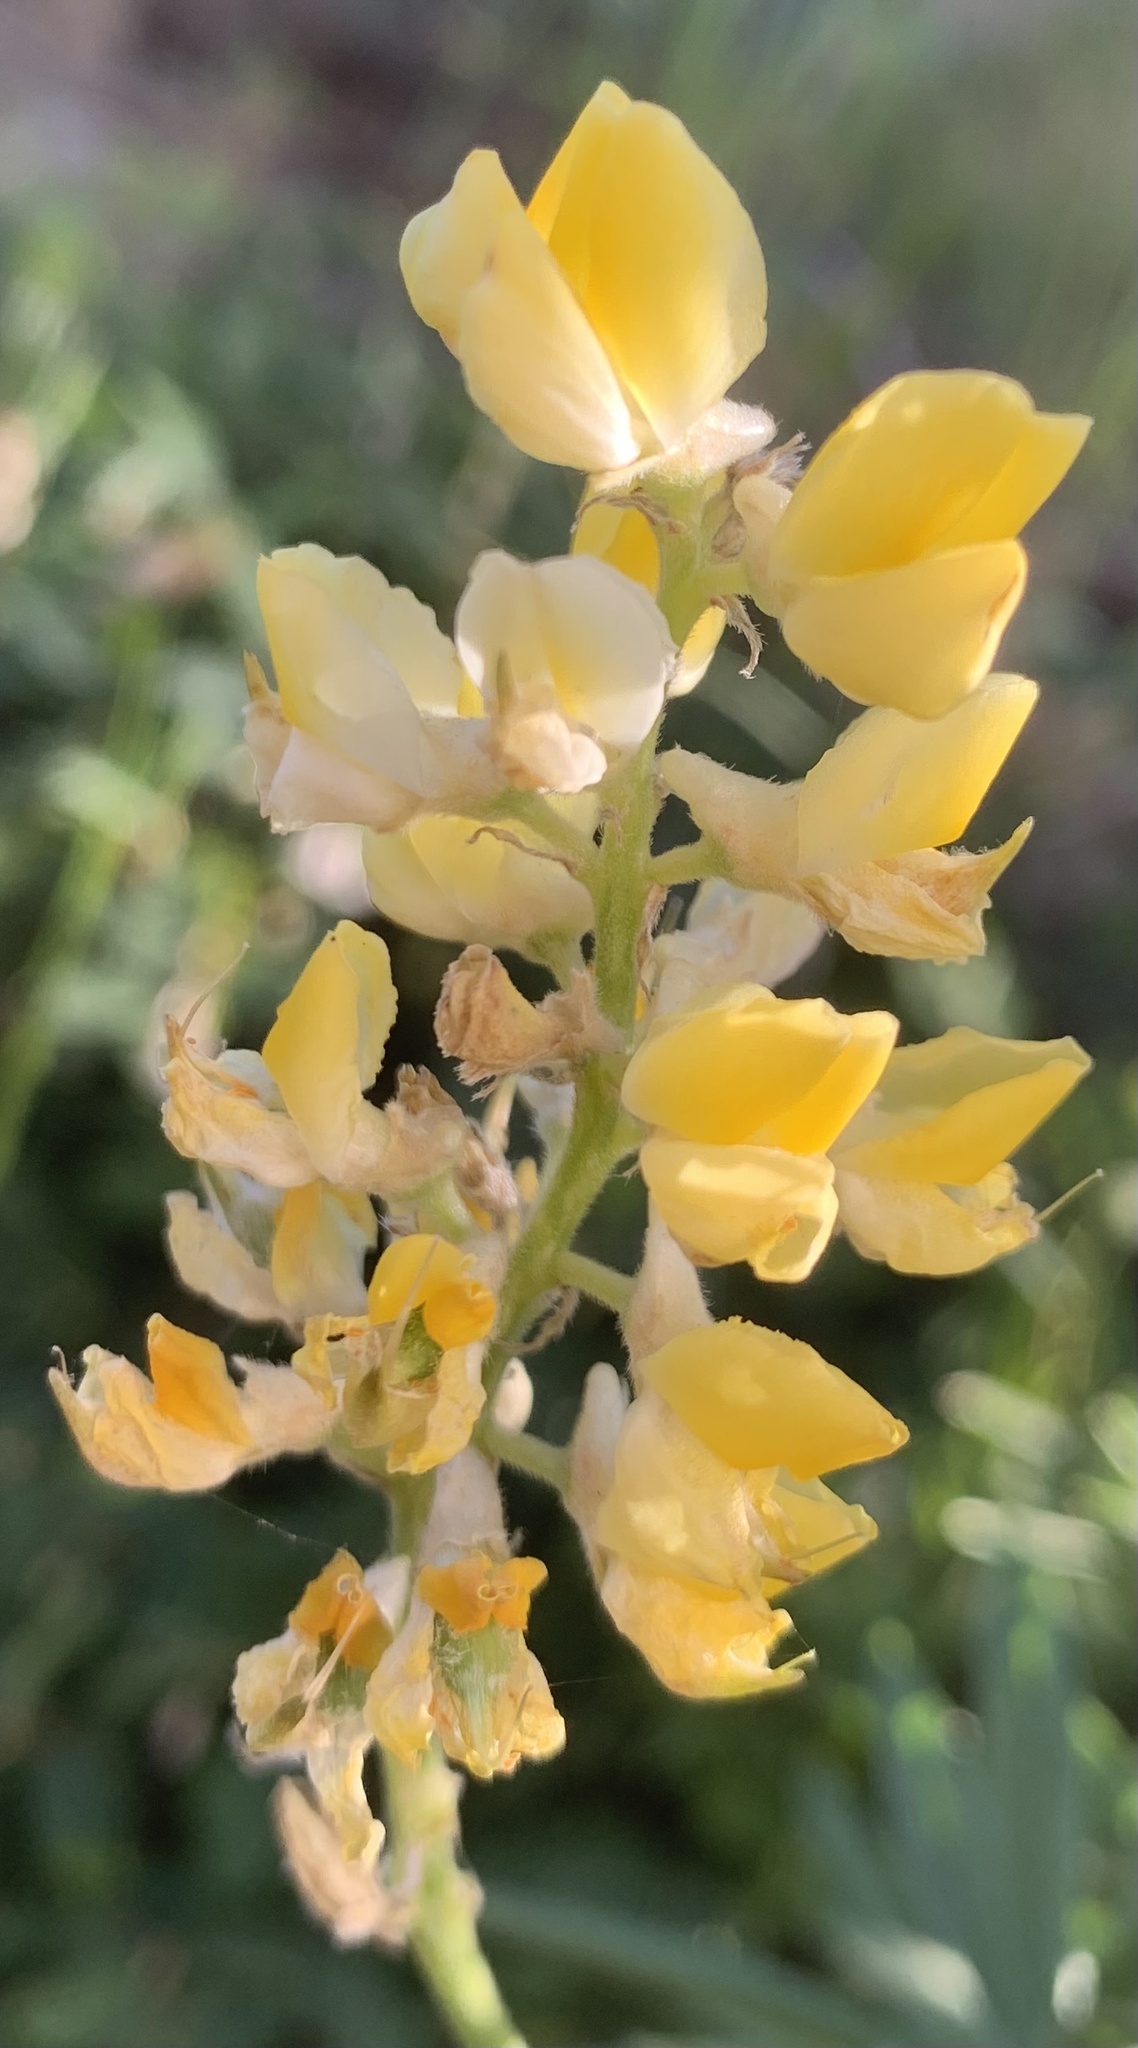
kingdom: Plantae
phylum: Tracheophyta
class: Magnoliopsida
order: Fabales
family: Fabaceae
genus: Lupinus
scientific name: Lupinus arbustus
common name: Montana lupine
